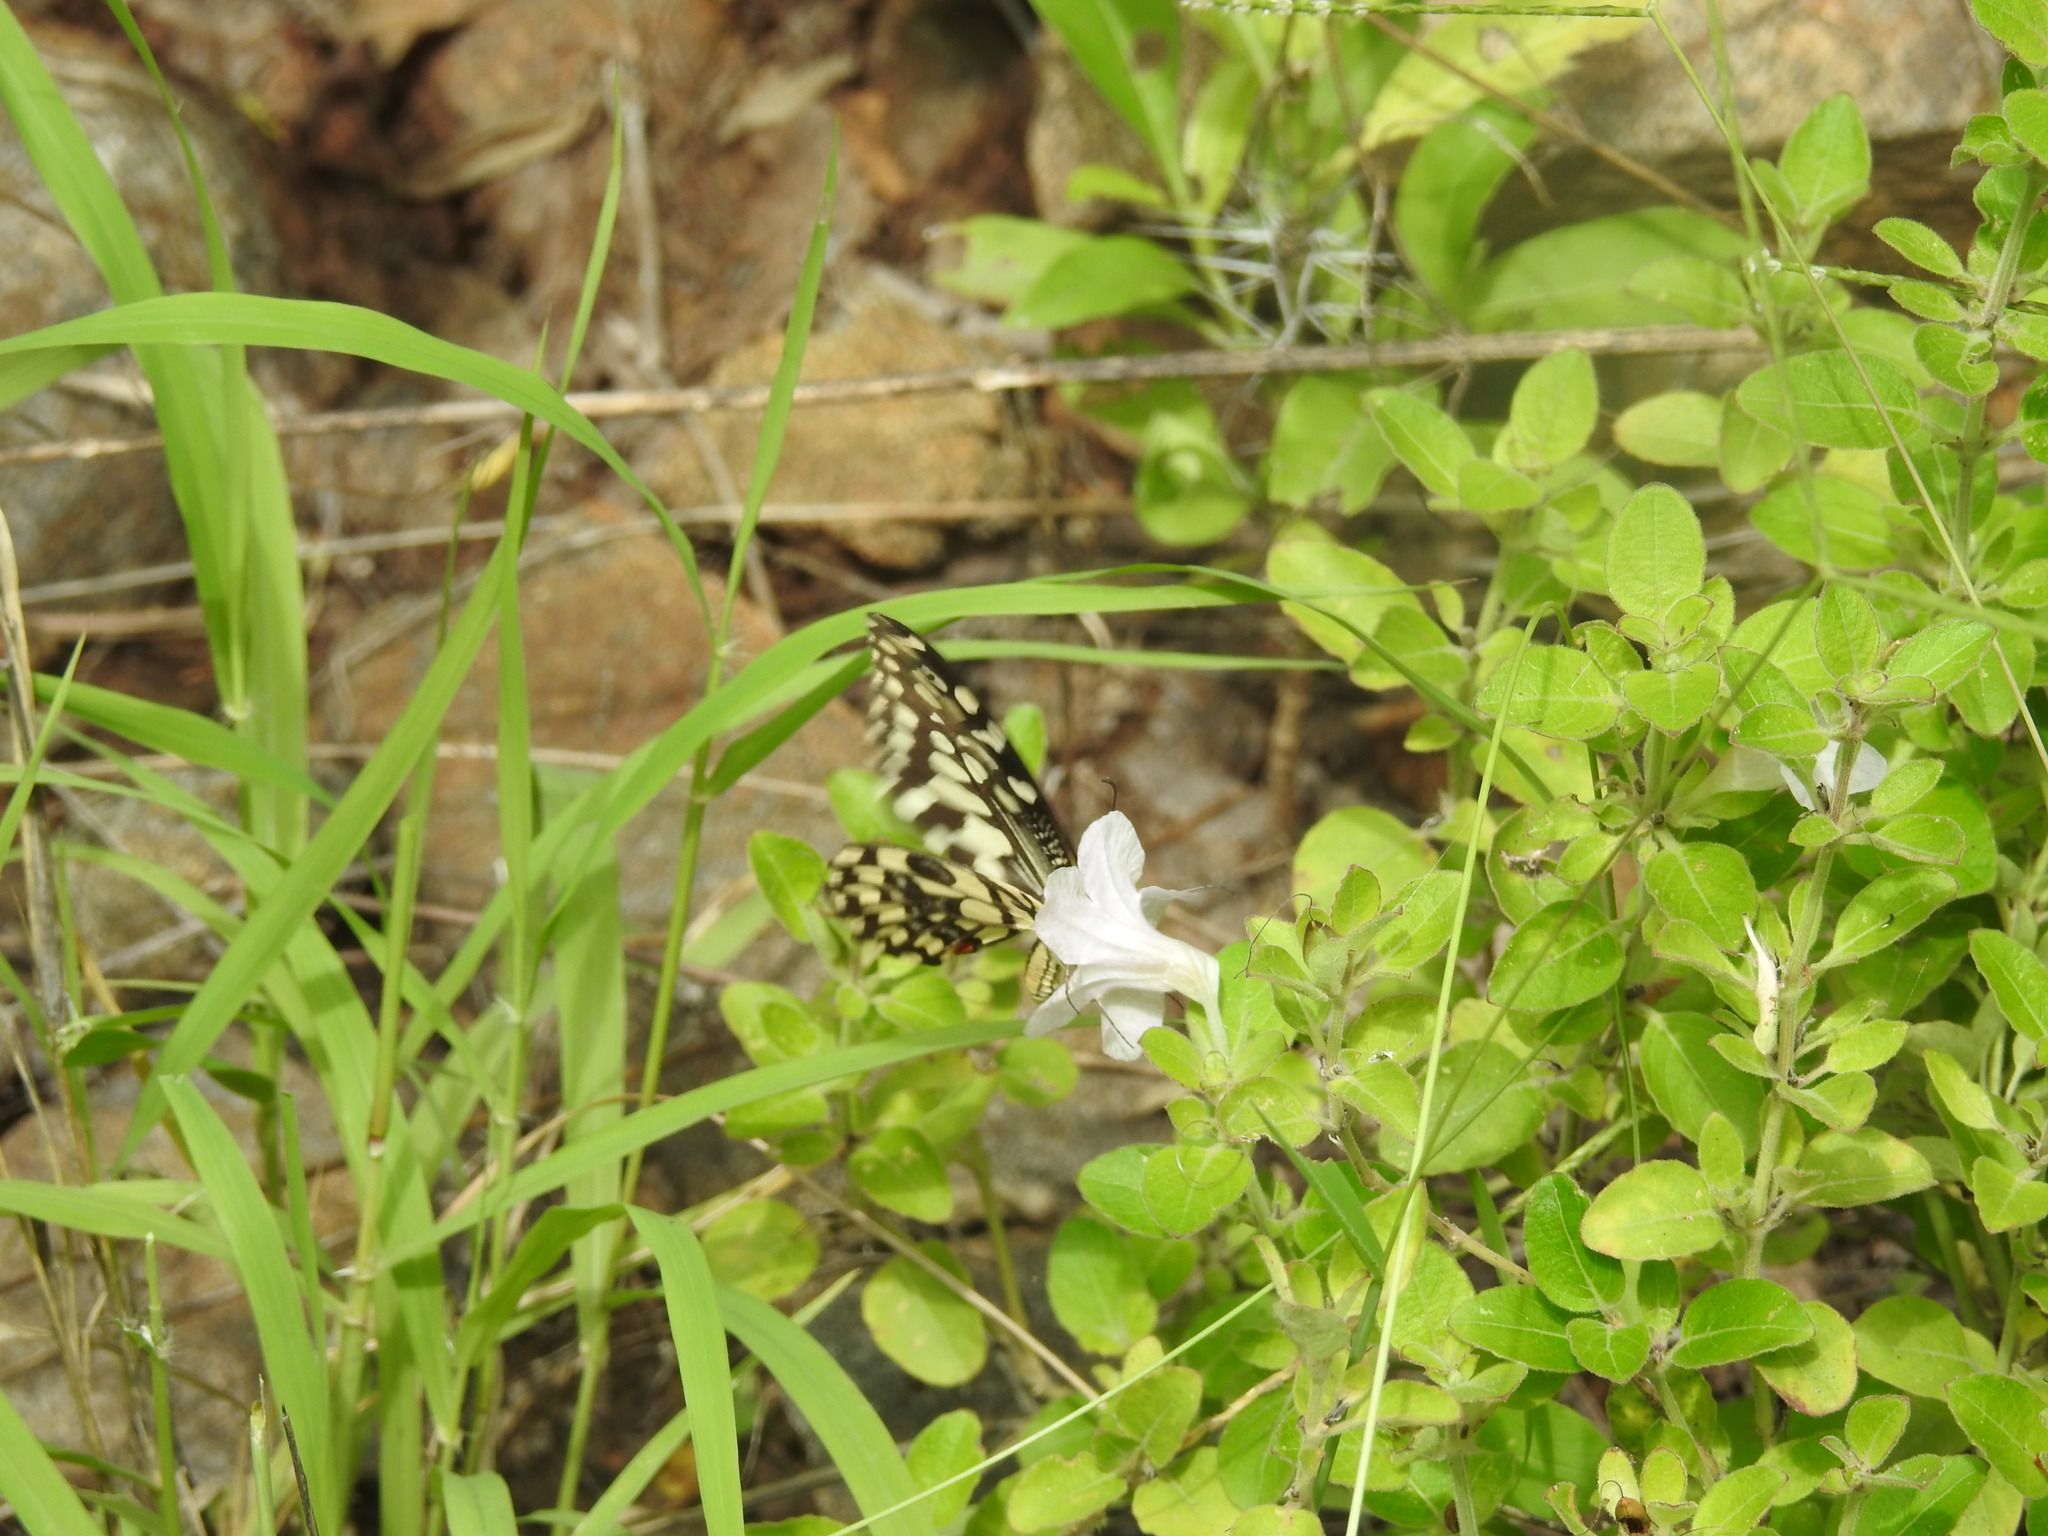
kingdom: Animalia
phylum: Arthropoda
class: Insecta
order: Lepidoptera
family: Papilionidae
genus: Papilio
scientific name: Papilio demoleus
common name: Lime butterfly
